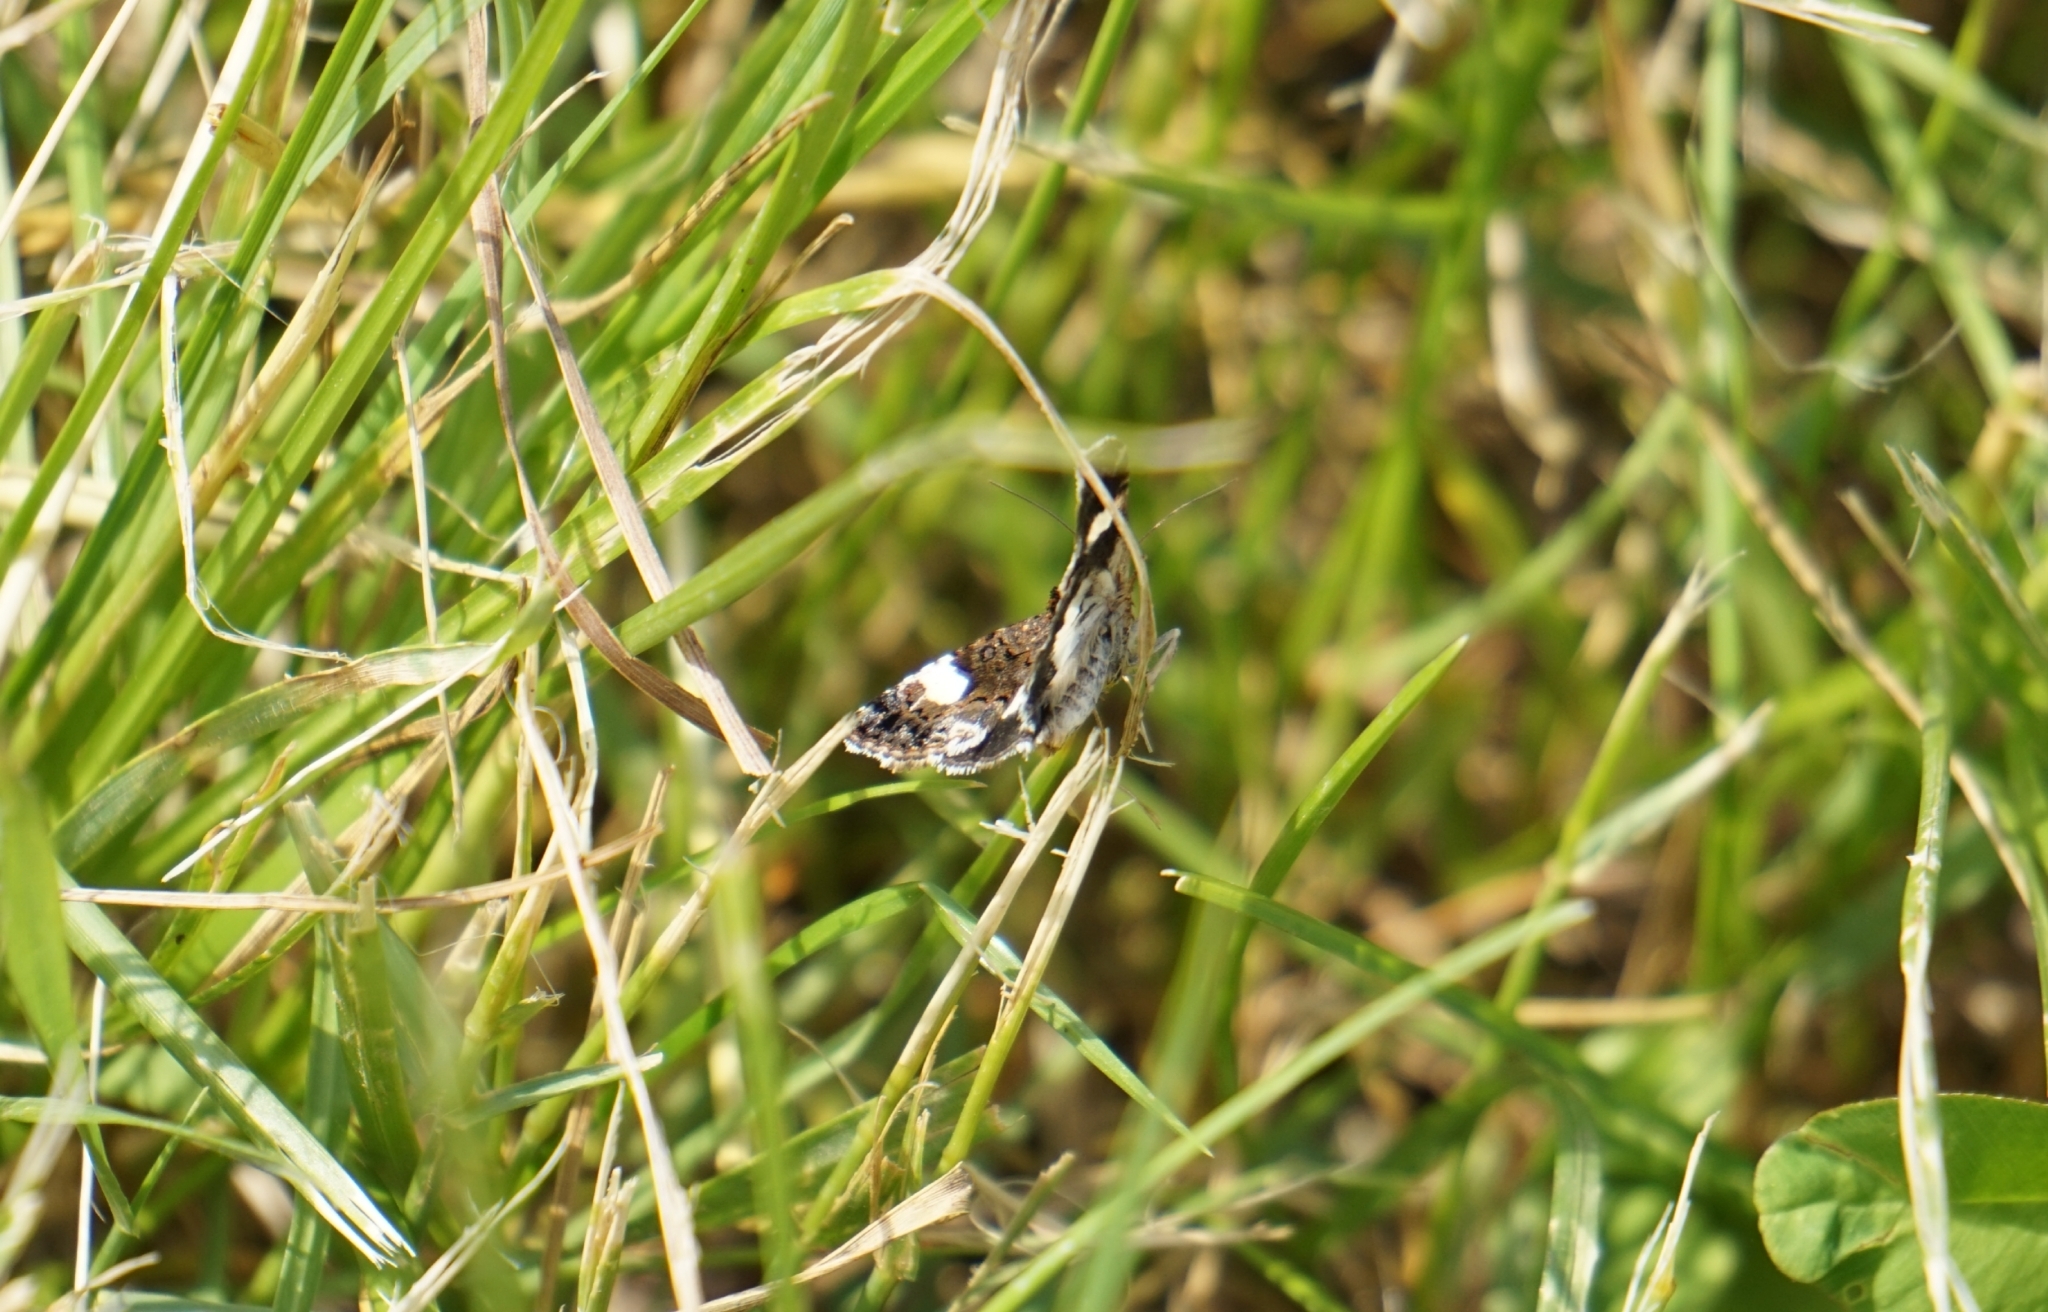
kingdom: Animalia
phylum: Arthropoda
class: Insecta
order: Lepidoptera
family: Erebidae
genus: Tyta
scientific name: Tyta luctuosa
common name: Four-spotted
